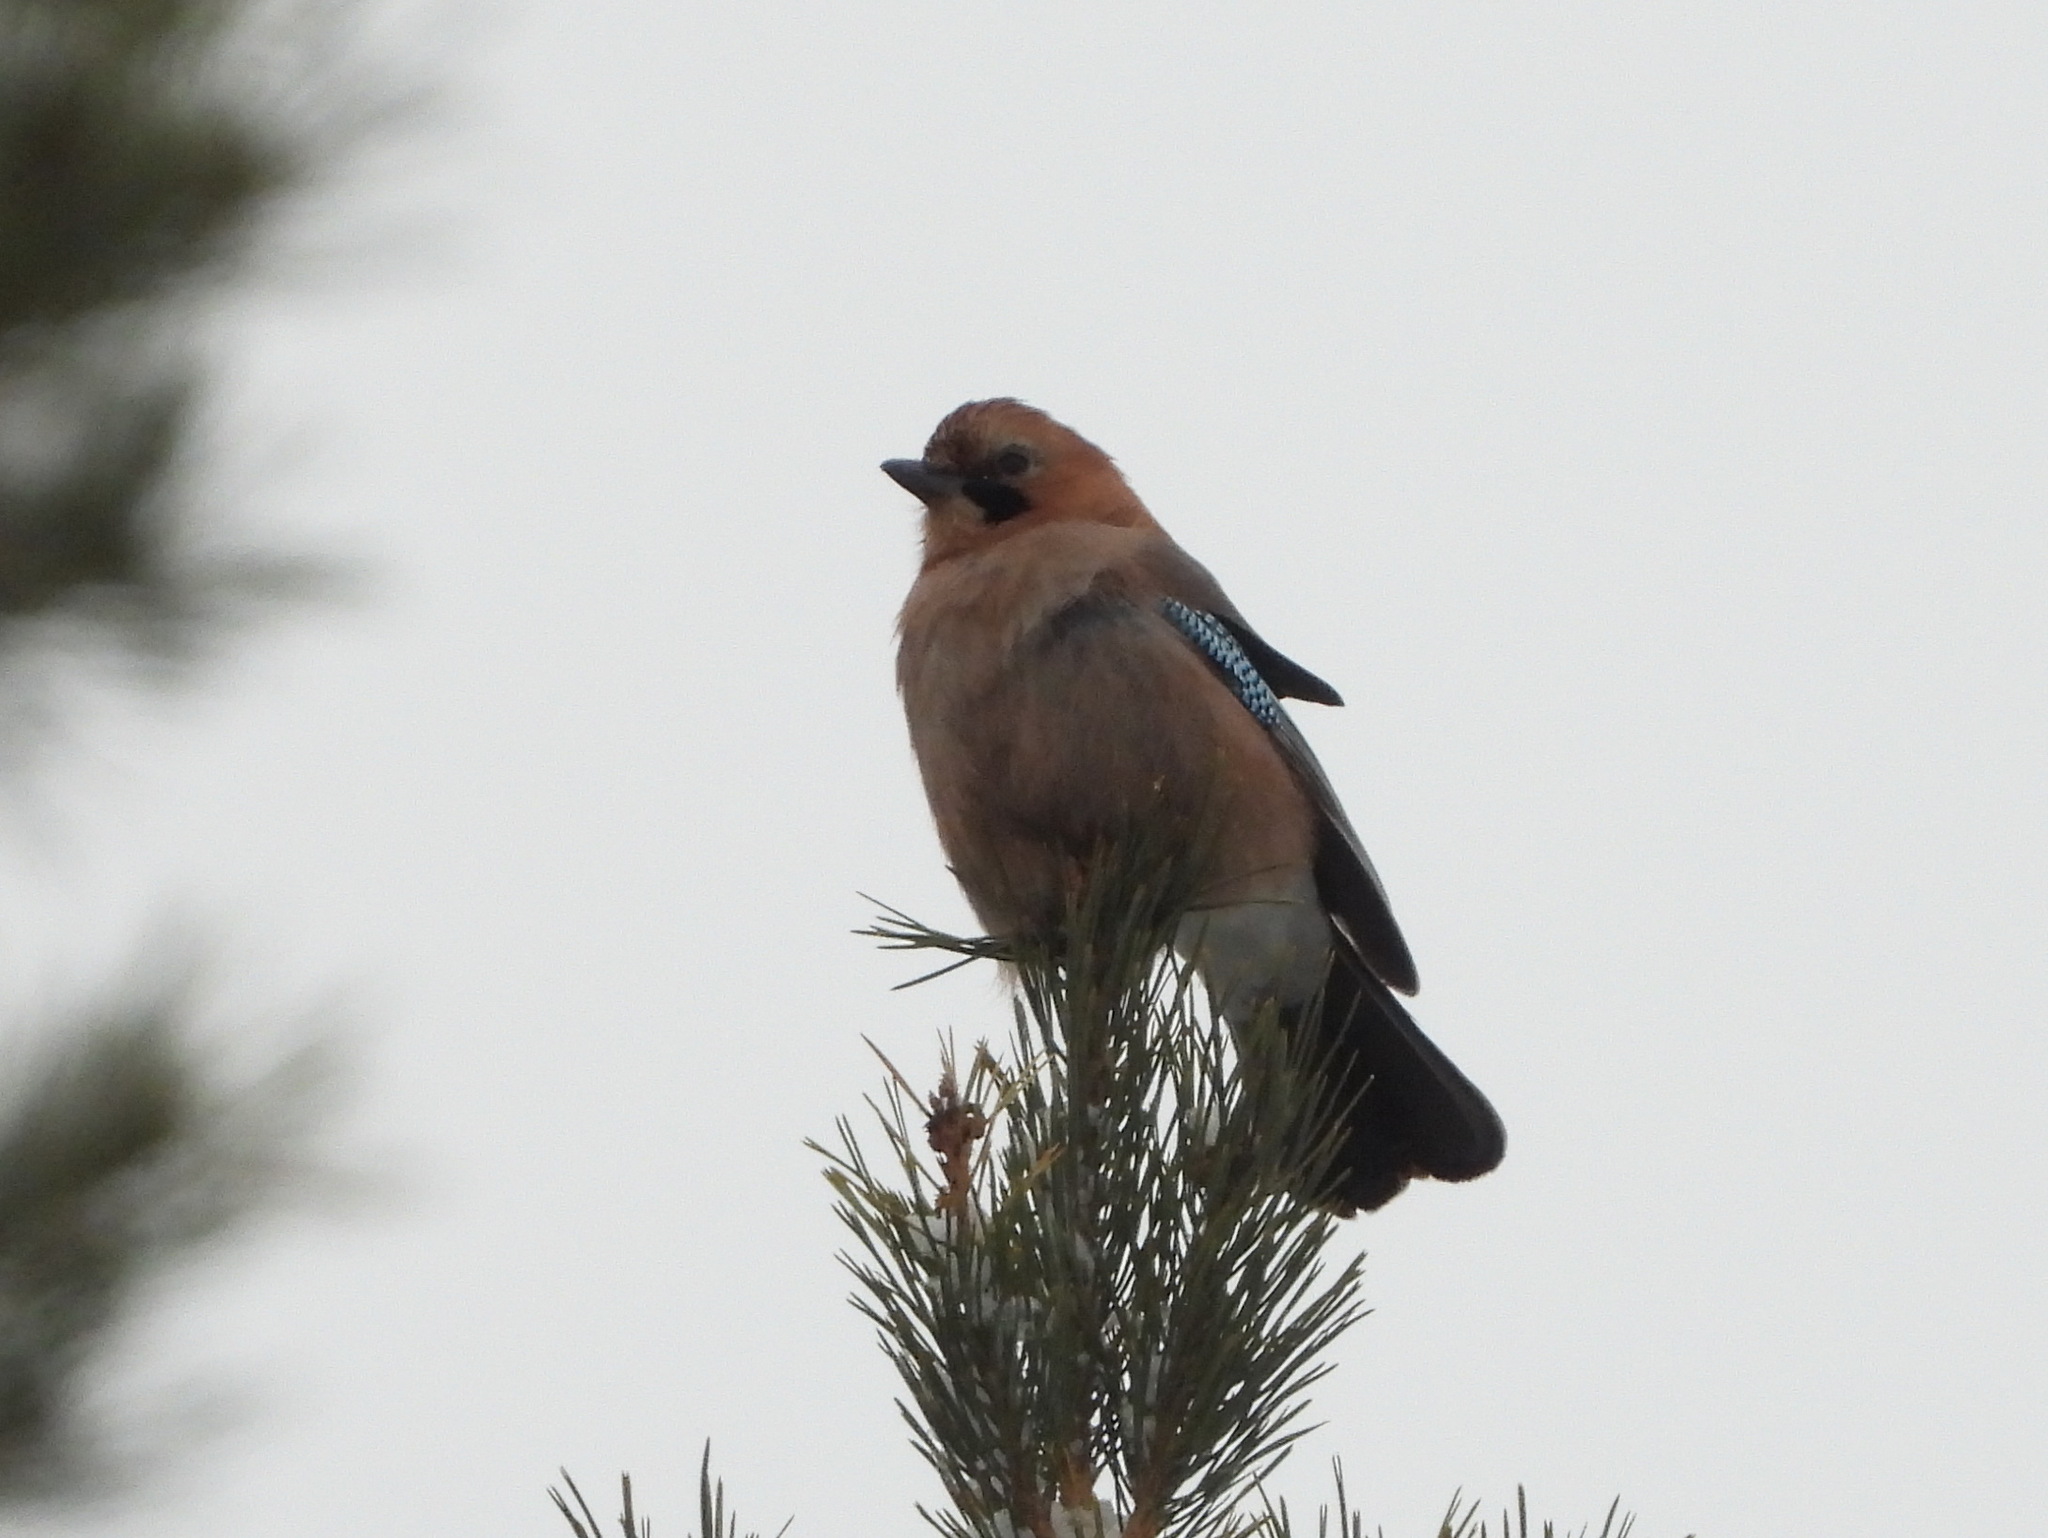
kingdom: Animalia
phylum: Chordata
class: Aves
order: Passeriformes
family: Corvidae
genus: Garrulus
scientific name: Garrulus glandarius
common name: Eurasian jay
